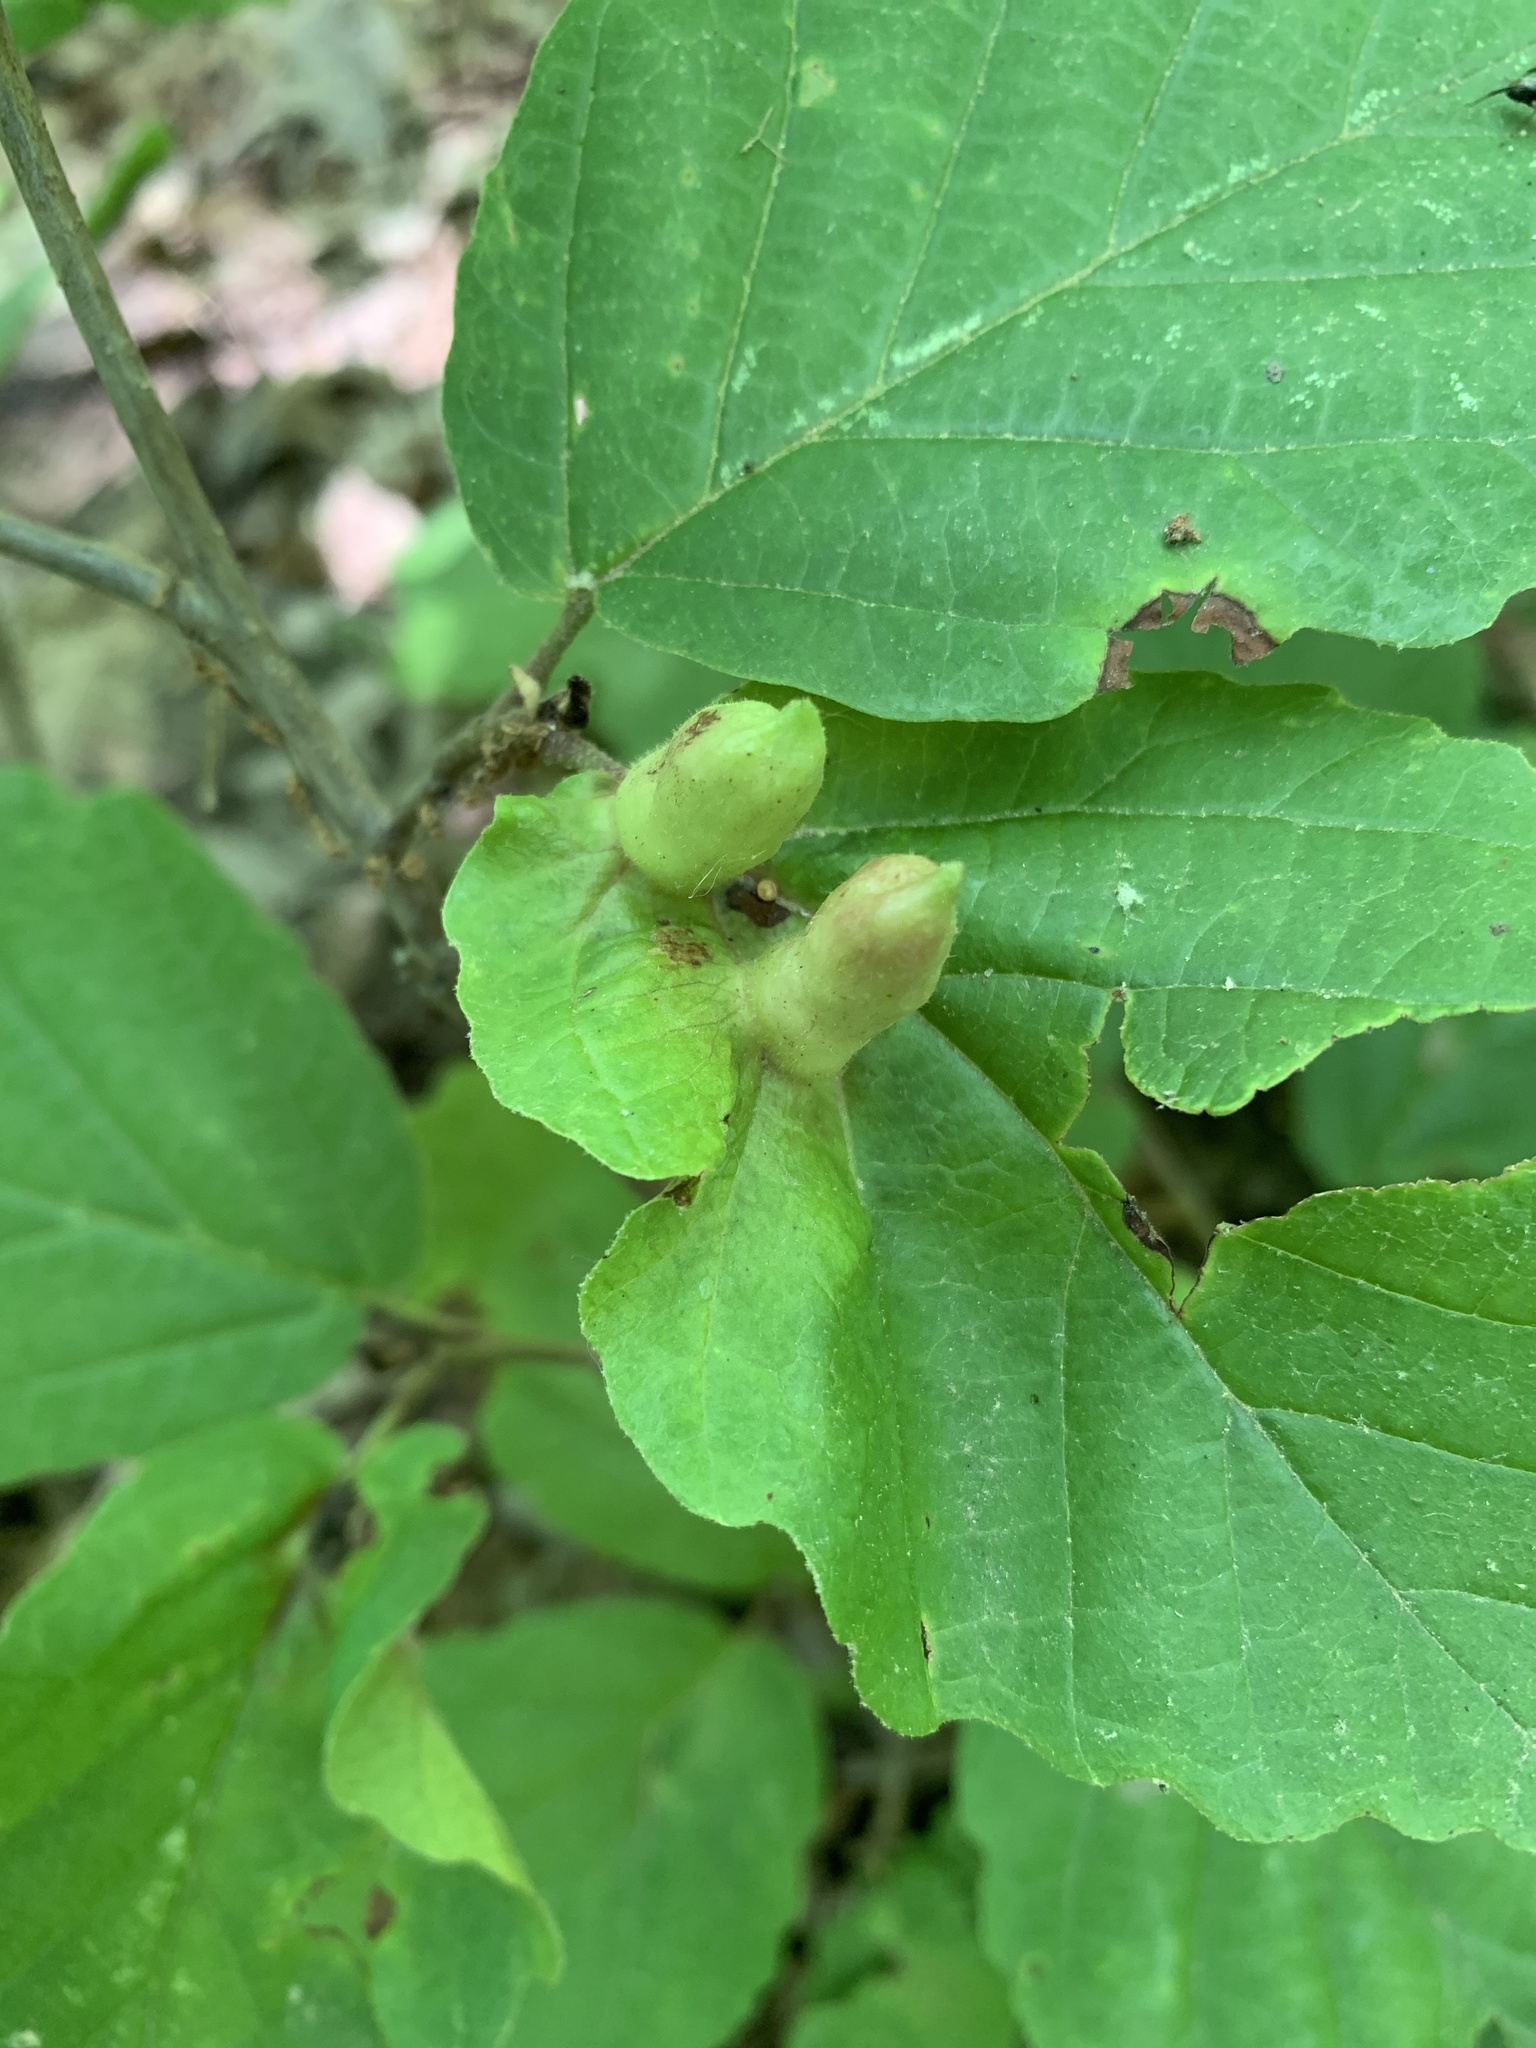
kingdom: Animalia
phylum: Arthropoda
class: Insecta
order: Hemiptera
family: Aphididae
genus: Hormaphis
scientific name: Hormaphis hamamelidis
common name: Witch-hazel cone gall aphid
